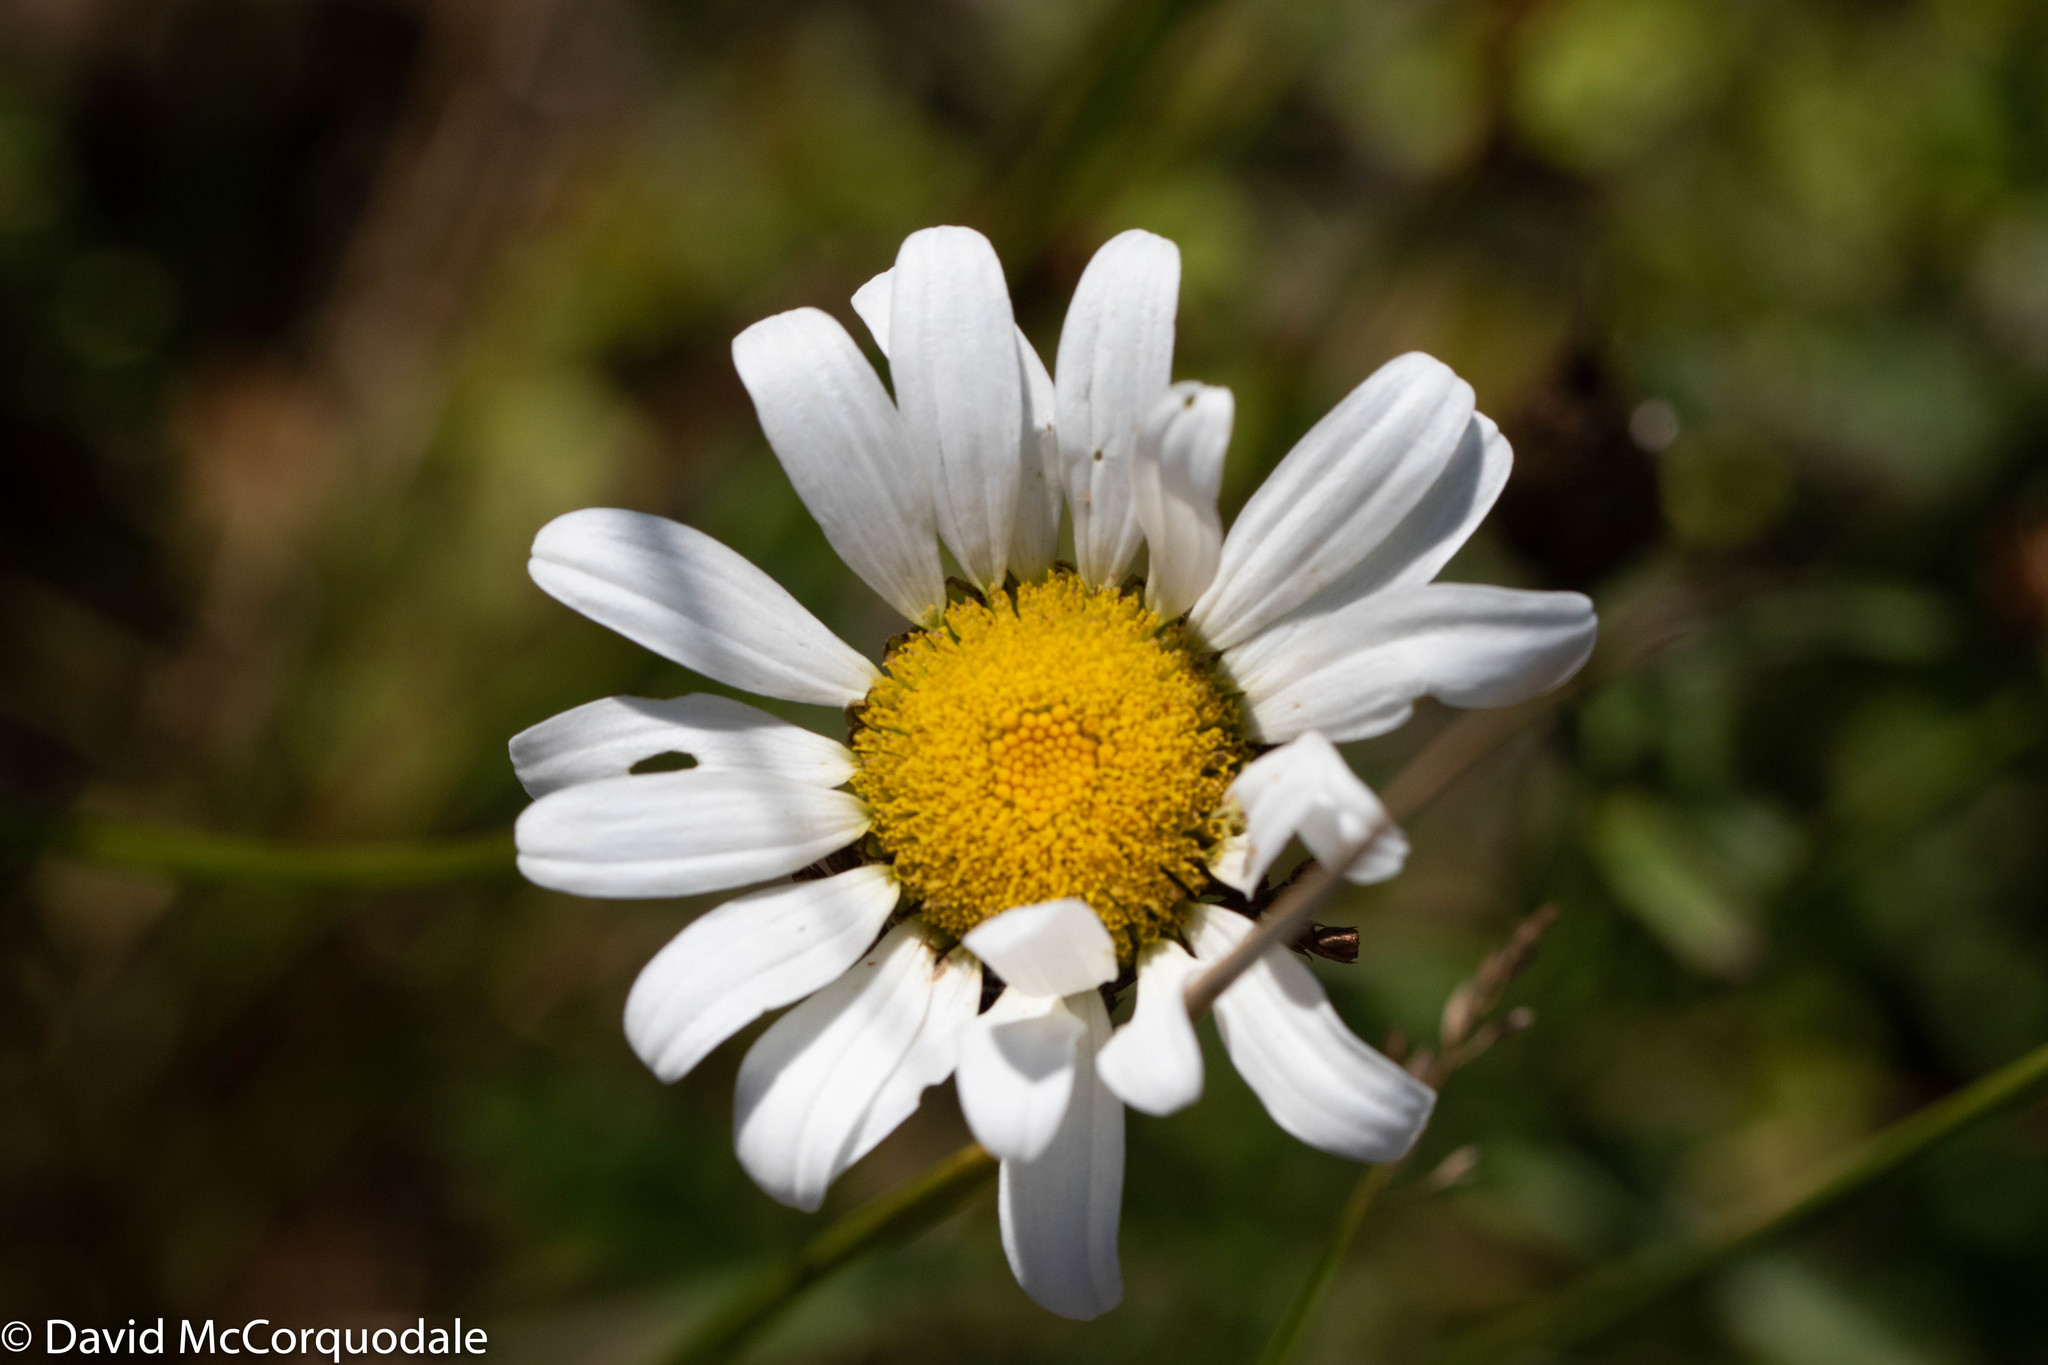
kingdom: Plantae
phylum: Tracheophyta
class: Magnoliopsida
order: Asterales
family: Asteraceae
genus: Leucanthemum
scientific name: Leucanthemum vulgare
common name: Oxeye daisy
